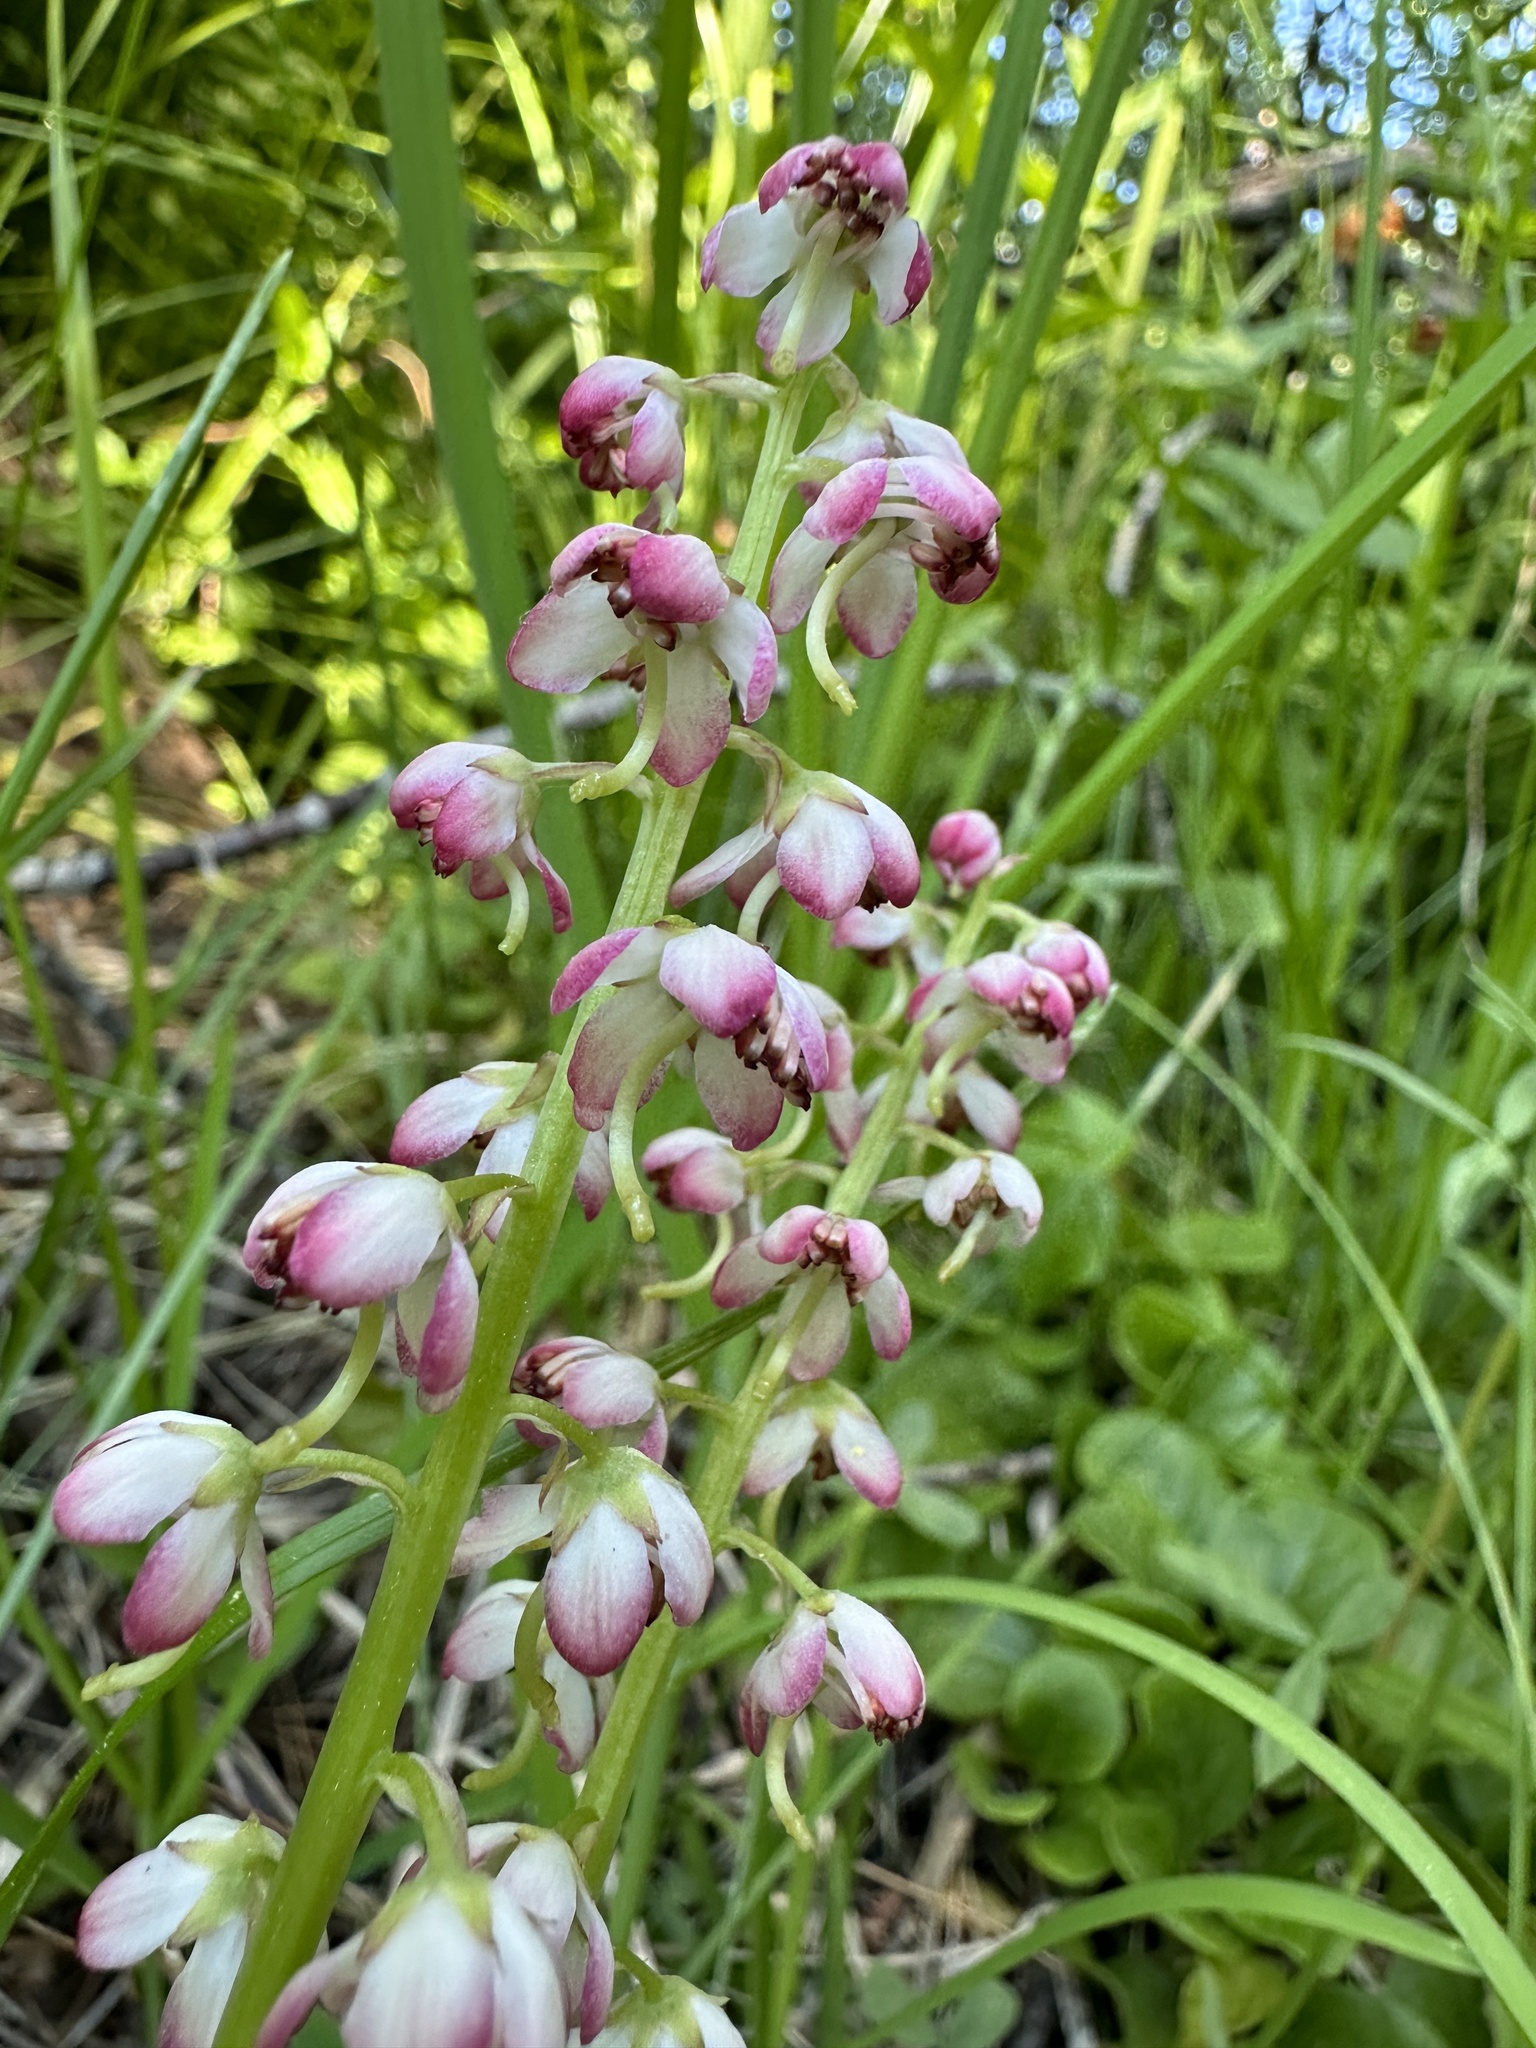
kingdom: Plantae
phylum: Tracheophyta
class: Magnoliopsida
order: Ericales
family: Ericaceae
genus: Pyrola
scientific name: Pyrola asarifolia
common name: Bog wintergreen
